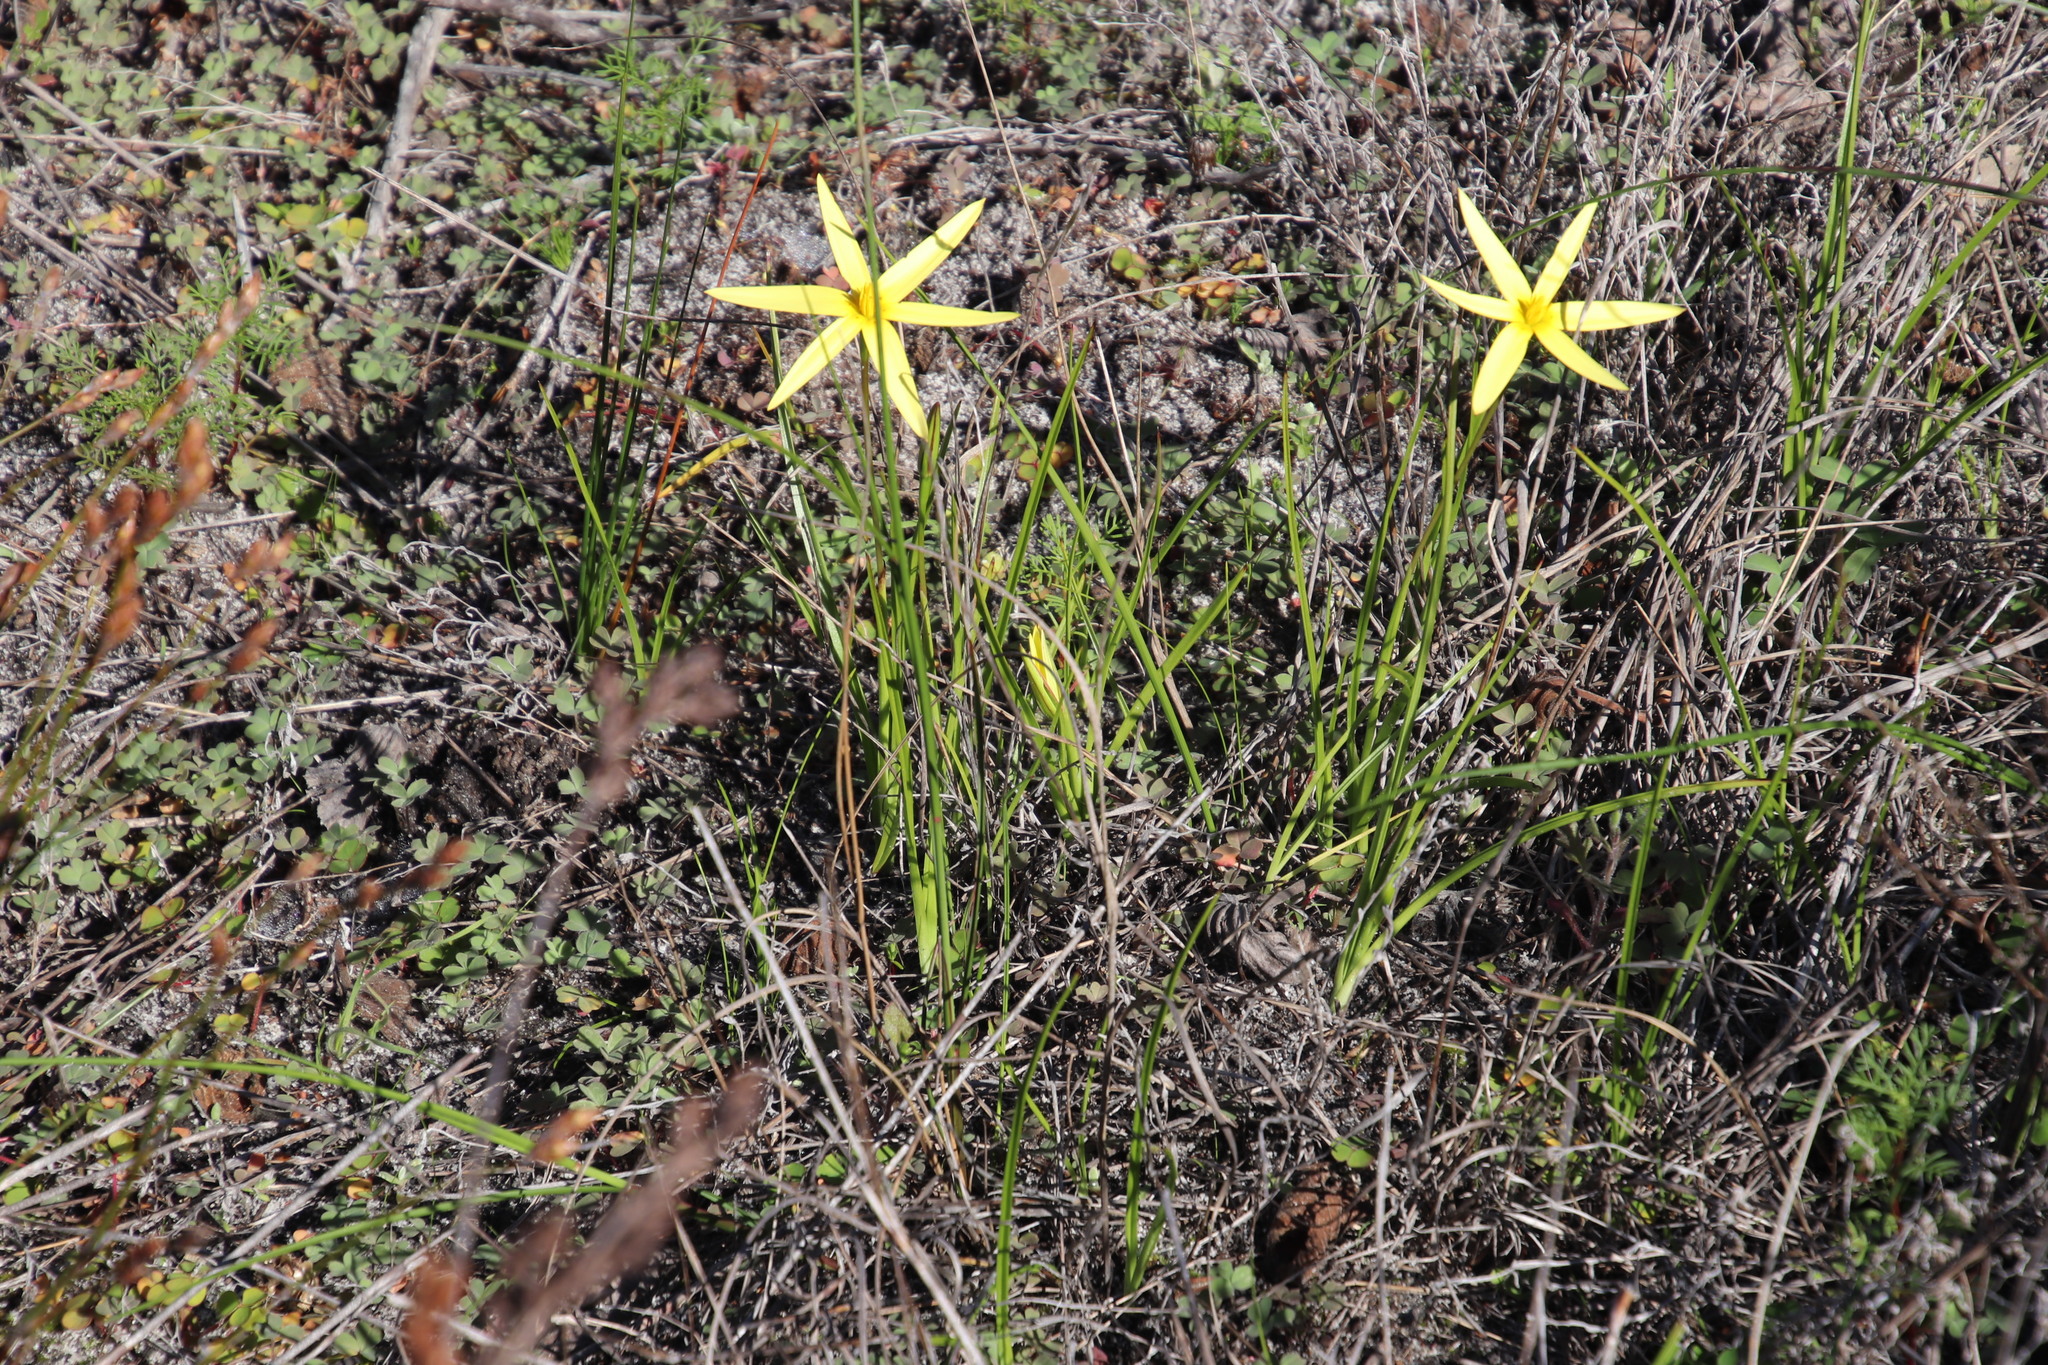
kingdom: Plantae
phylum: Tracheophyta
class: Liliopsida
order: Asparagales
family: Hypoxidaceae
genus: Pauridia
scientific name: Pauridia capensis
